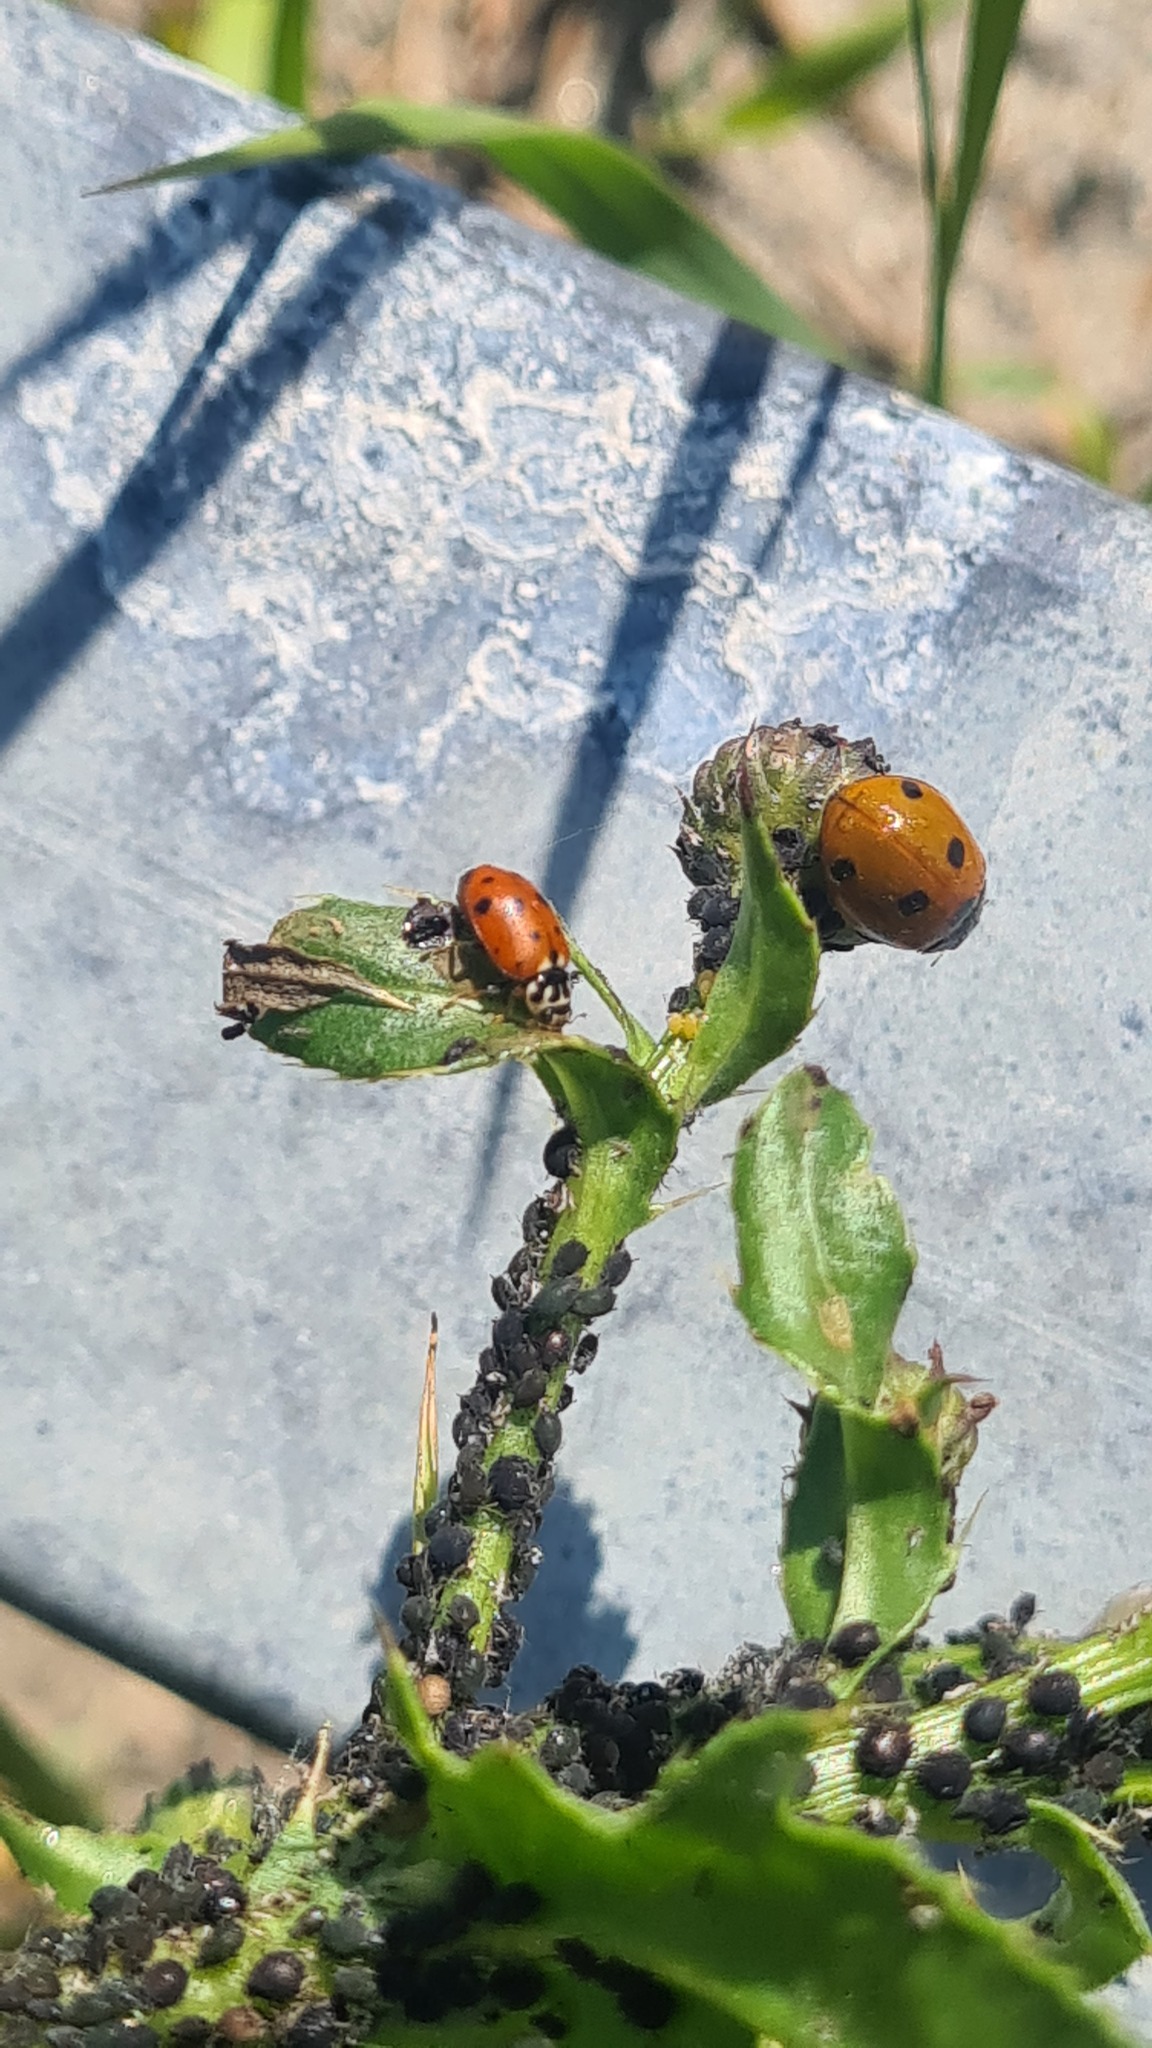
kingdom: Animalia
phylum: Arthropoda
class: Insecta
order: Coleoptera
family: Coccinellidae
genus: Coccinella
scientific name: Coccinella septempunctata
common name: Sevenspotted lady beetle
